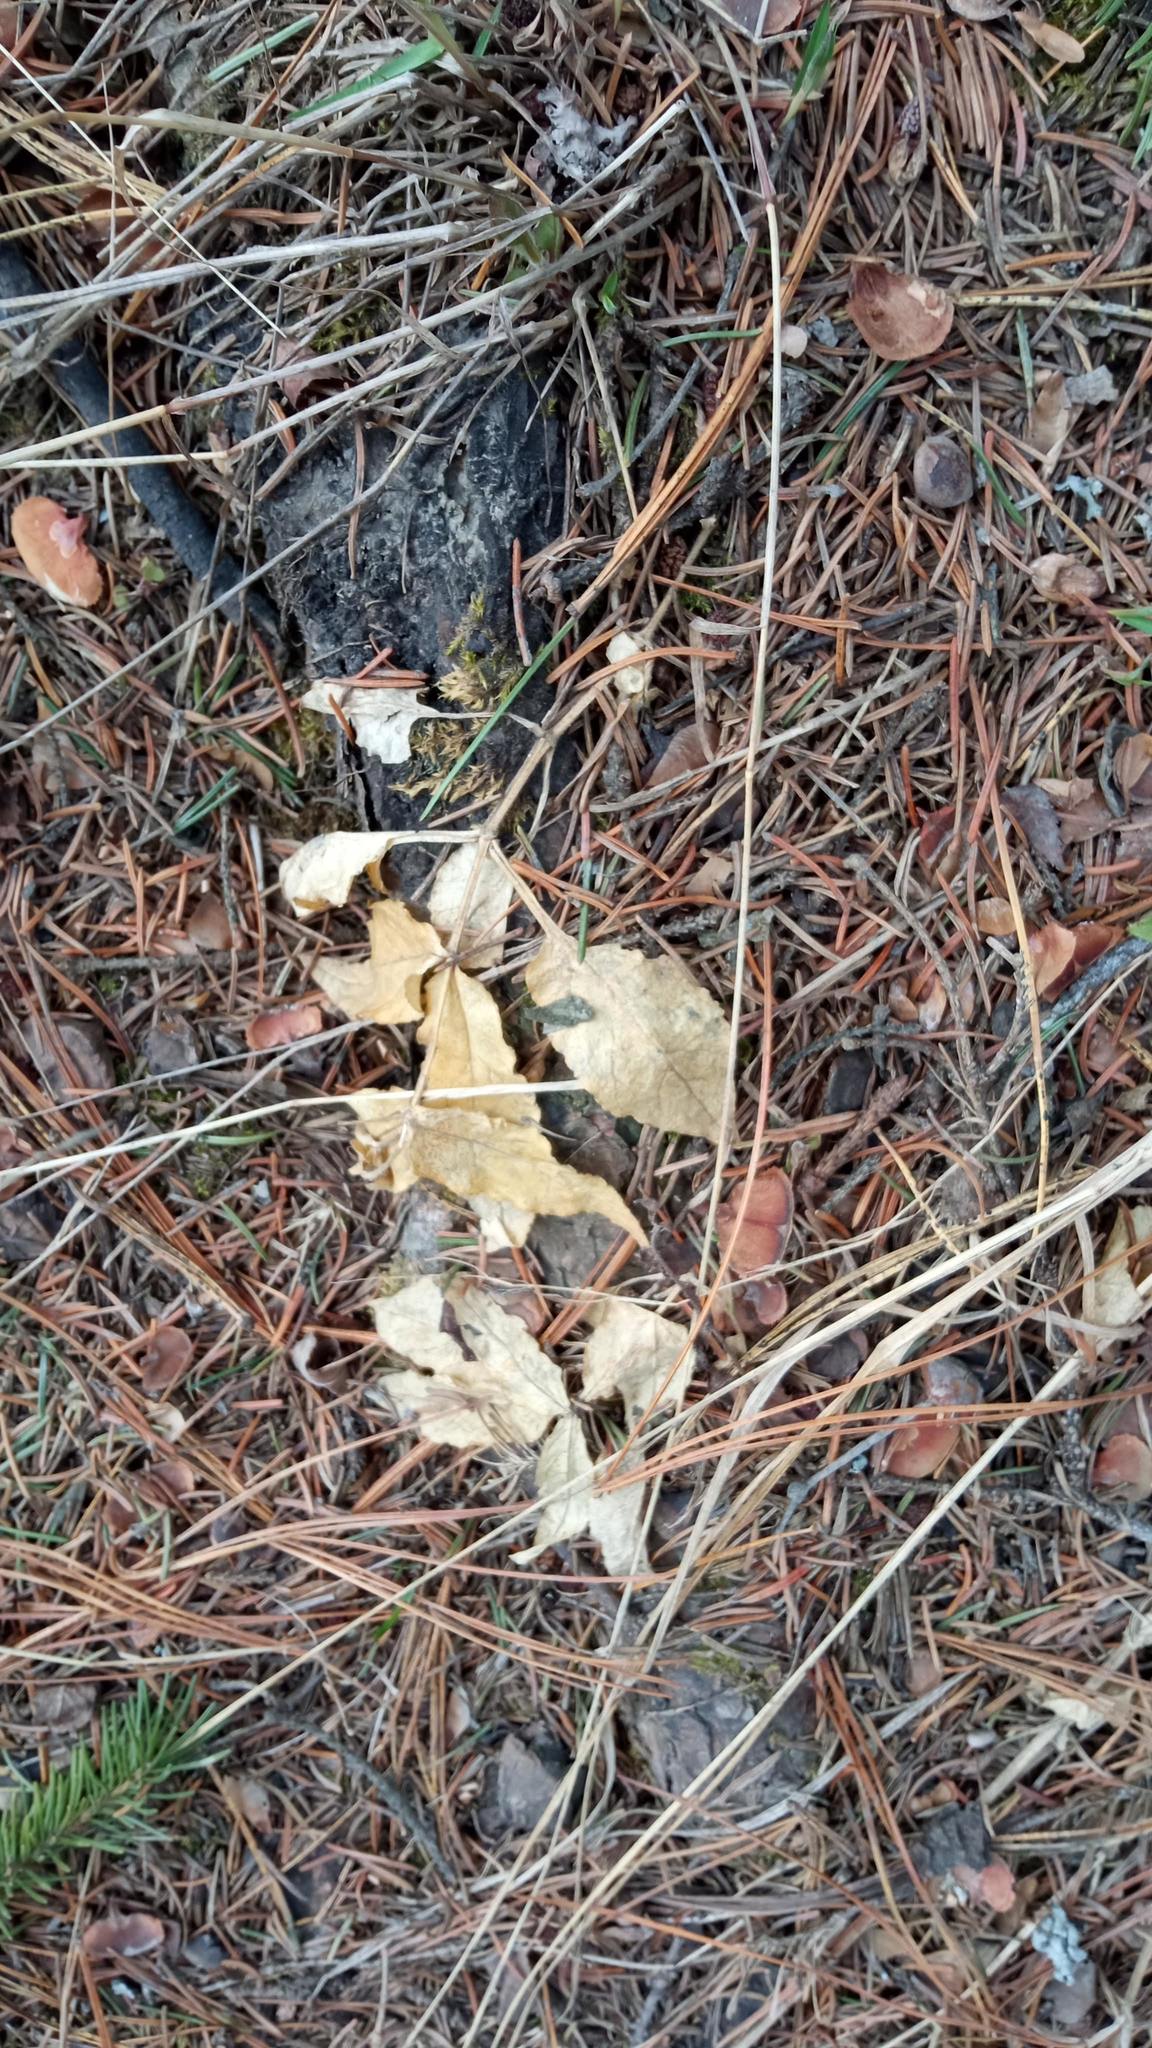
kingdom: Plantae
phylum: Tracheophyta
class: Magnoliopsida
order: Caryophyllales
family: Caryophyllaceae
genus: Stellaria
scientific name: Stellaria bungeana
